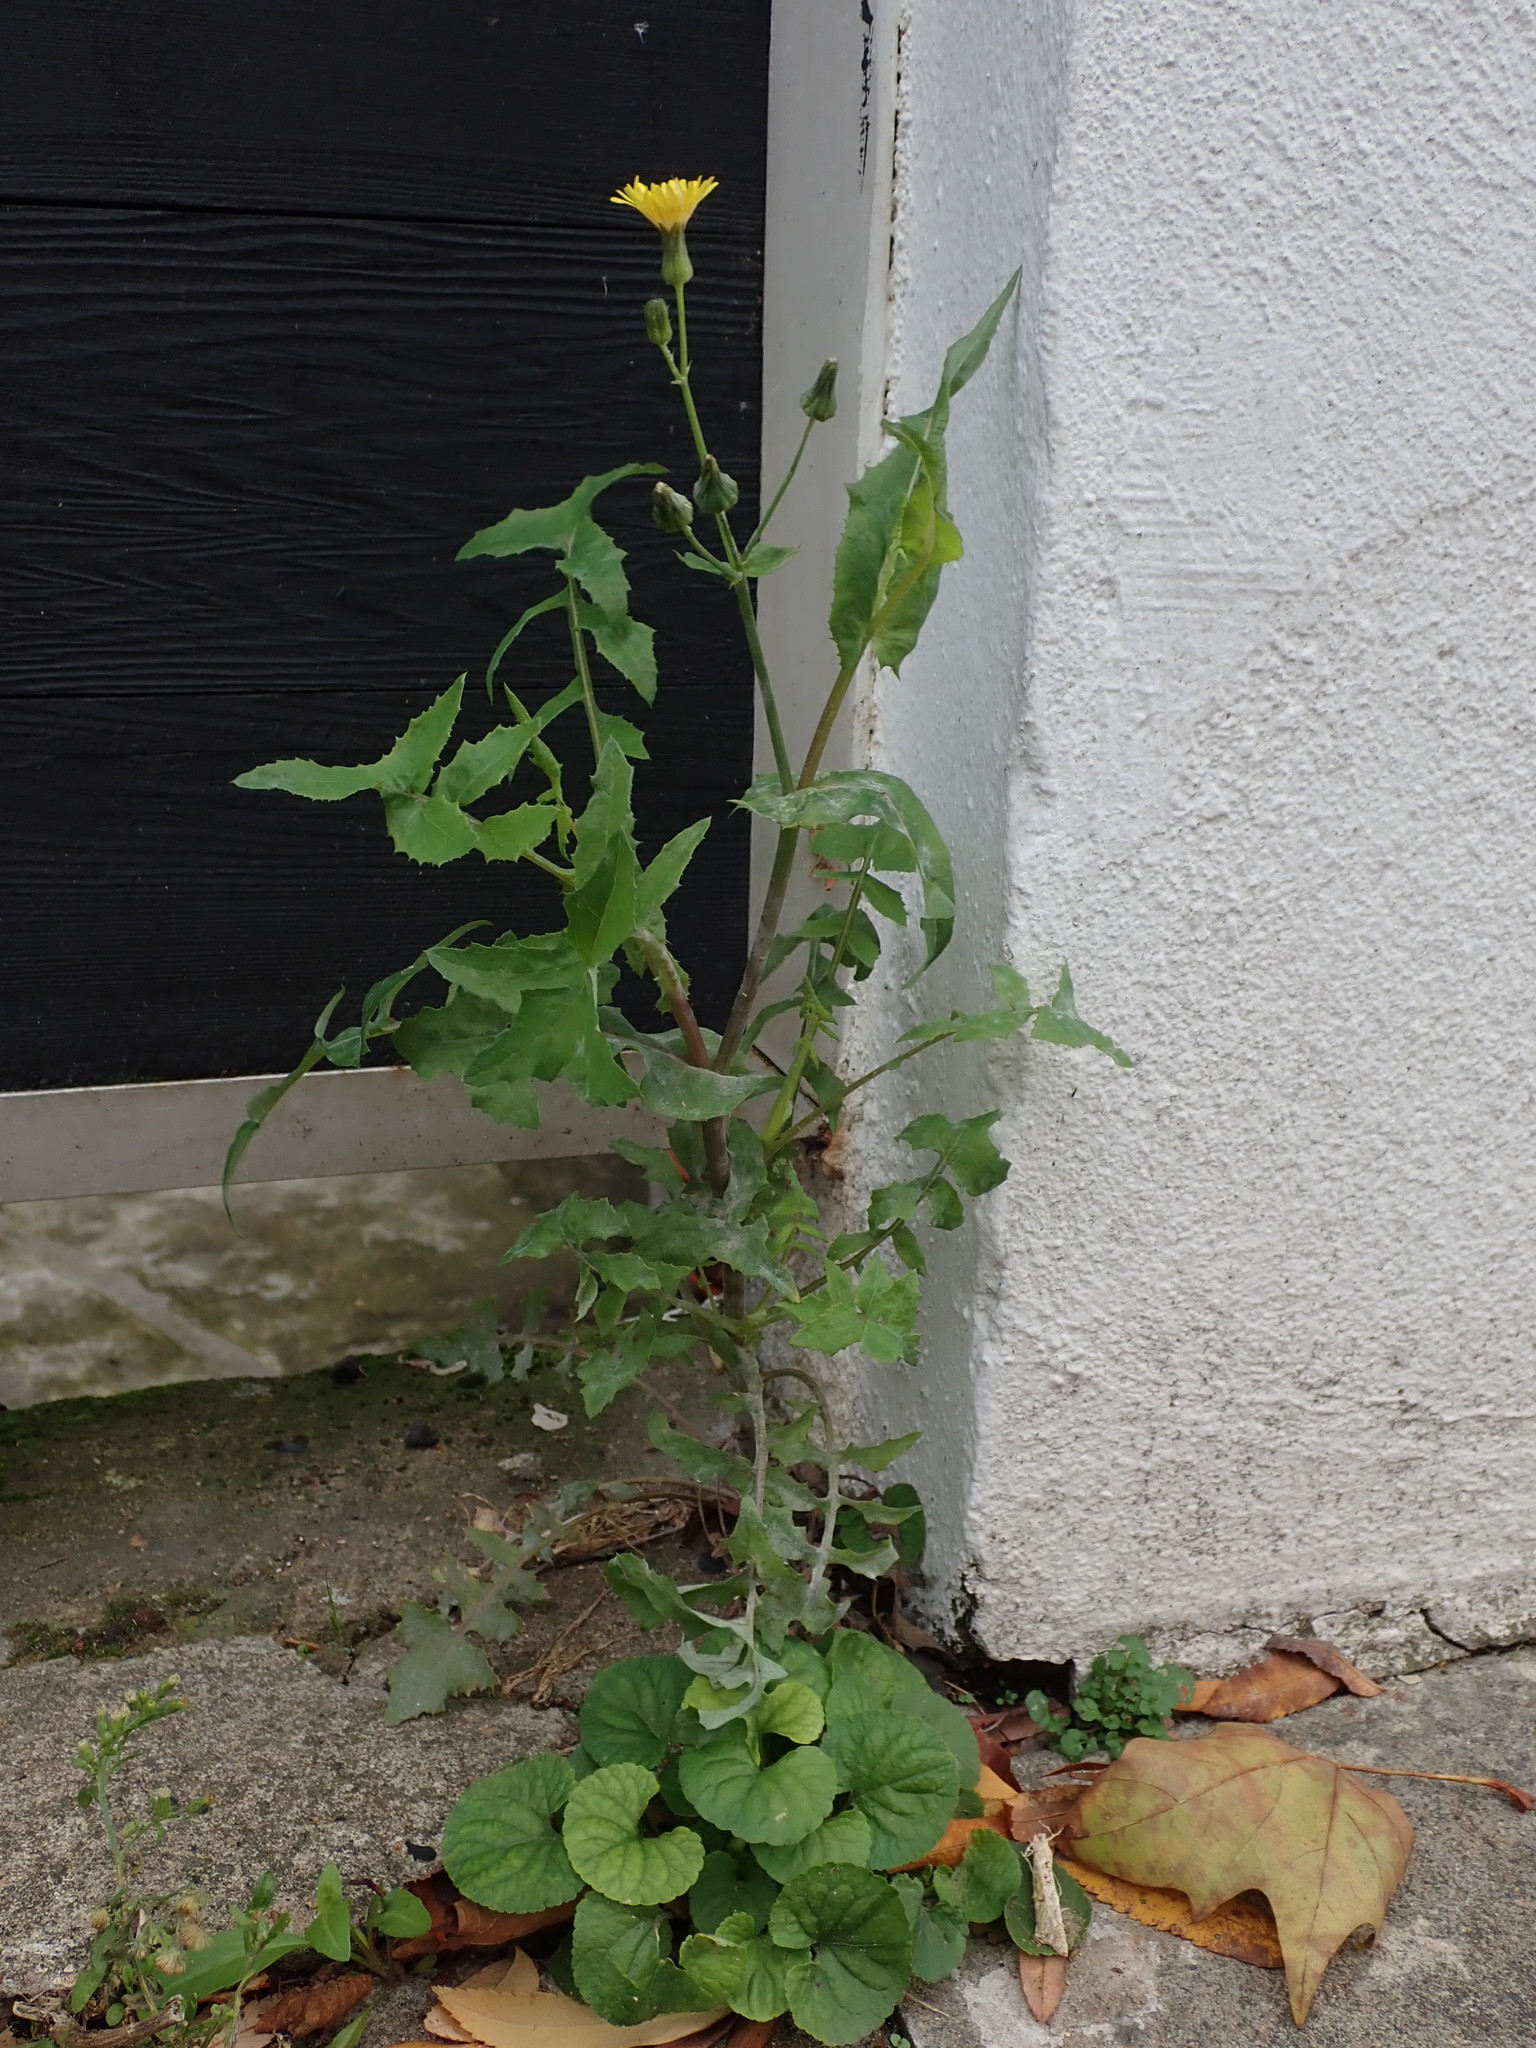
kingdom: Plantae
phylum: Tracheophyta
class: Magnoliopsida
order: Asterales
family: Asteraceae
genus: Sonchus
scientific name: Sonchus oleraceus
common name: Common sowthistle
